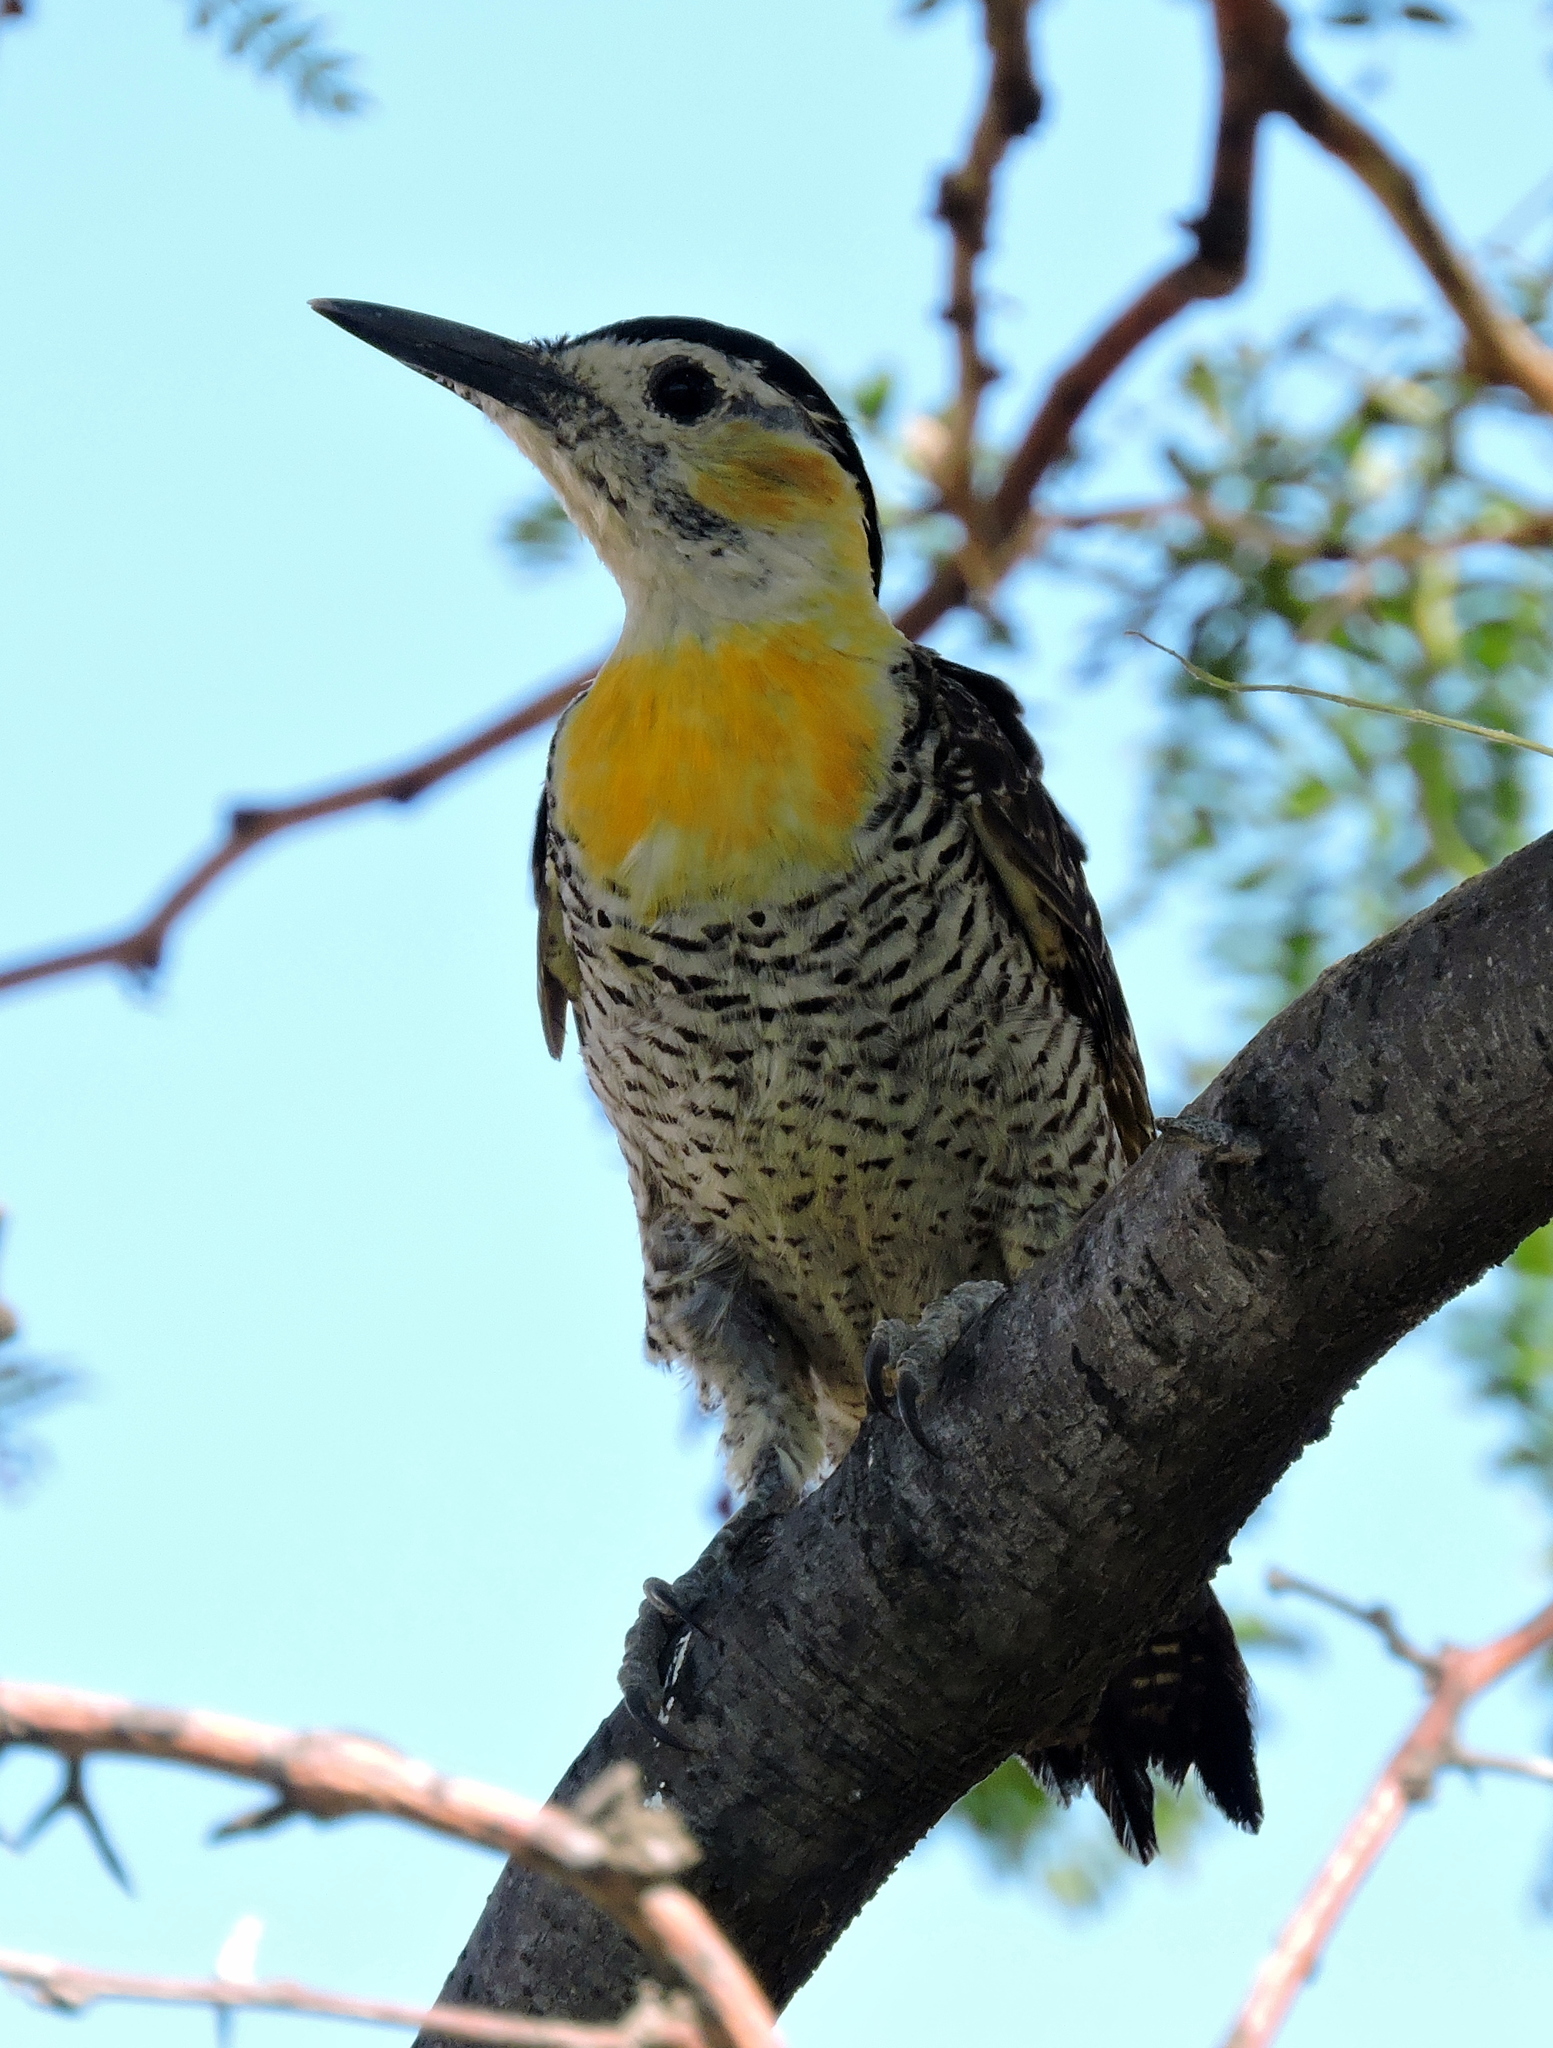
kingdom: Animalia
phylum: Chordata
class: Aves
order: Piciformes
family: Picidae
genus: Colaptes
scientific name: Colaptes campestris
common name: Campo flicker
